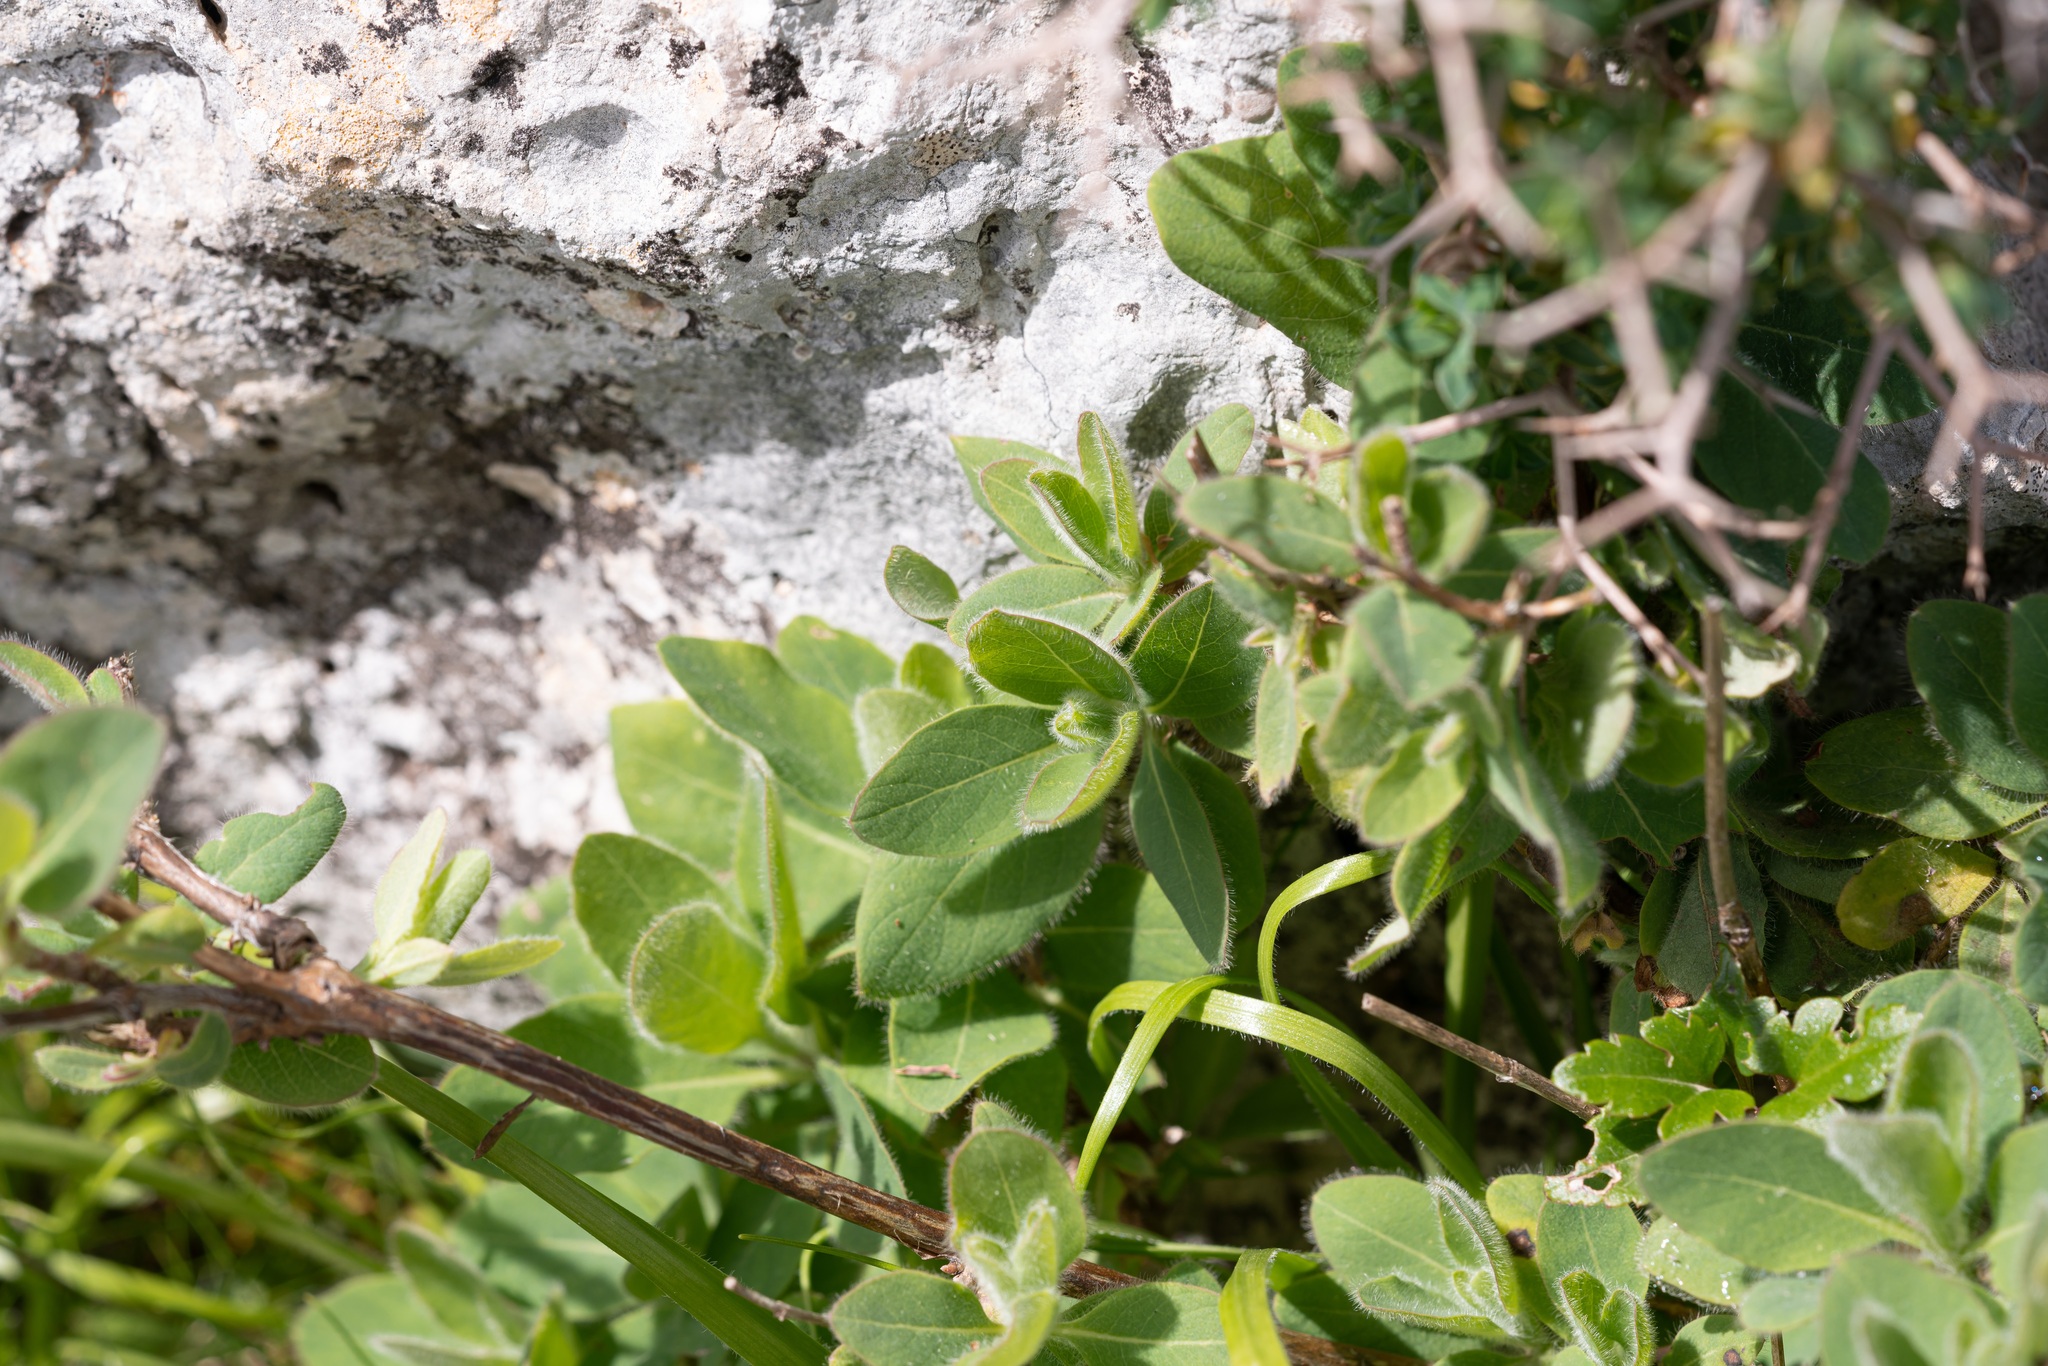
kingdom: Plantae
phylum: Tracheophyta
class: Magnoliopsida
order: Dipsacales
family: Caprifoliaceae
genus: Lonicera
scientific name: Lonicera etrusca
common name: Etruscan honeysuckle
